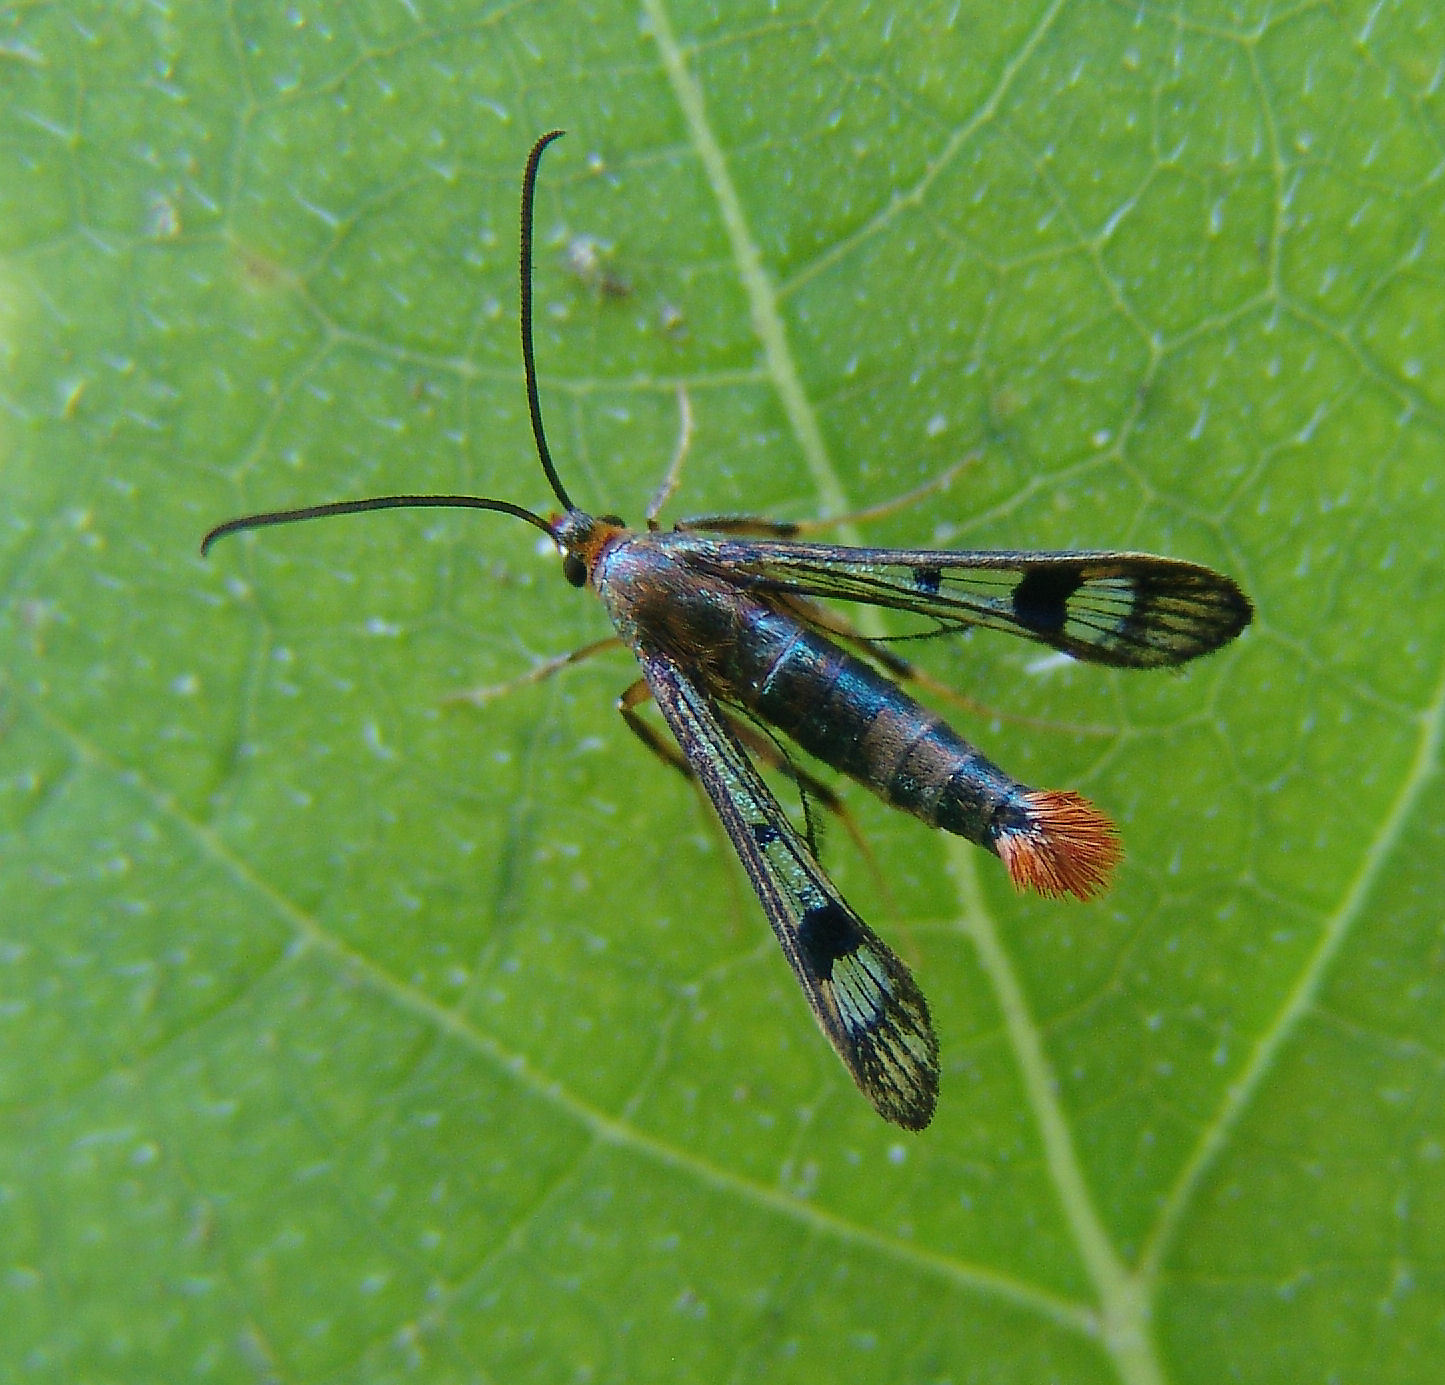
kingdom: Animalia
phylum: Arthropoda
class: Insecta
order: Lepidoptera
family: Sesiidae
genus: Synanthedon
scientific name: Synanthedon acerni
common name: Maple callus borer moth
